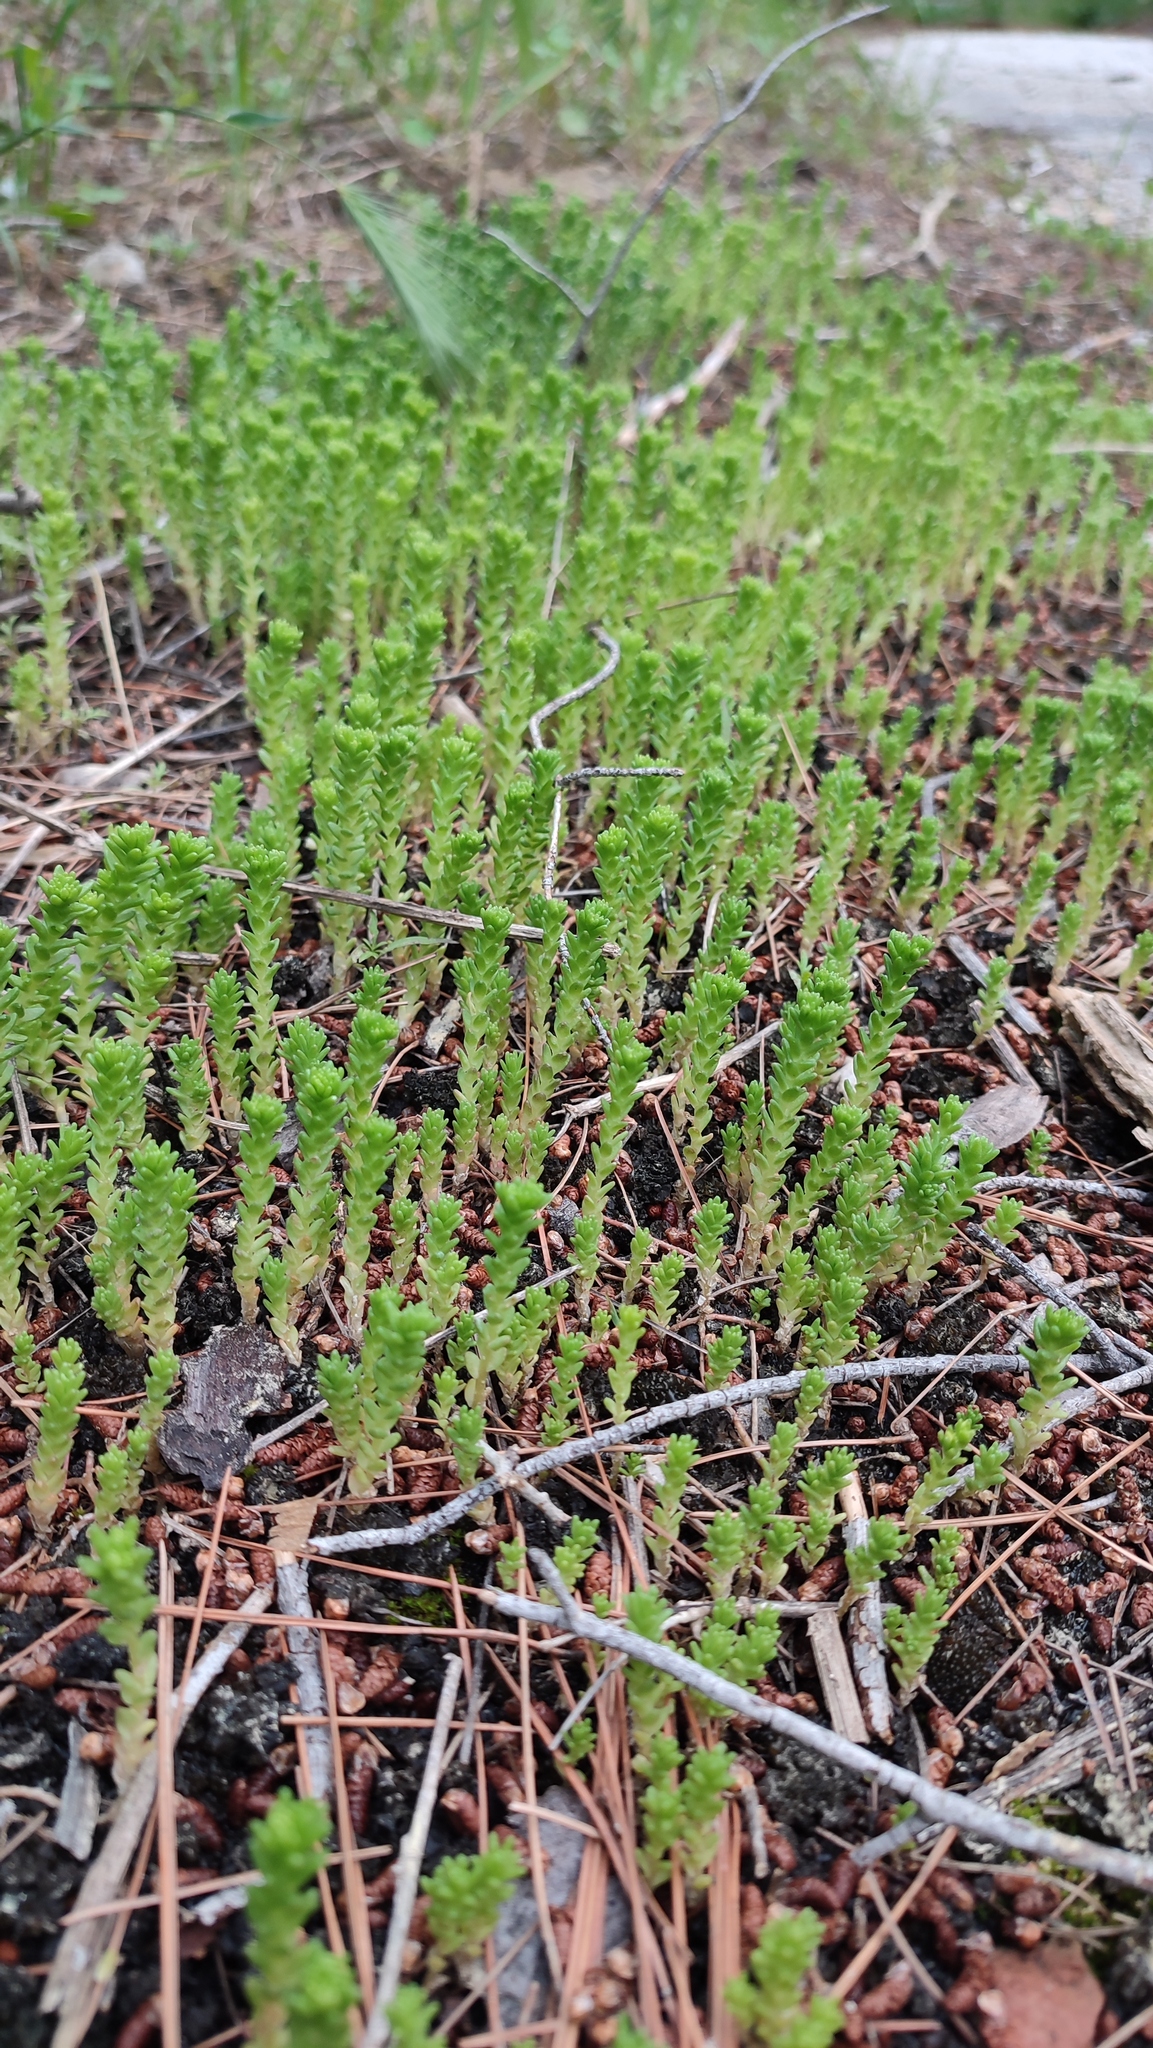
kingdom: Plantae
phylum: Tracheophyta
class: Magnoliopsida
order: Saxifragales
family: Crassulaceae
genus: Sedum
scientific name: Sedum acre
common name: Biting stonecrop
